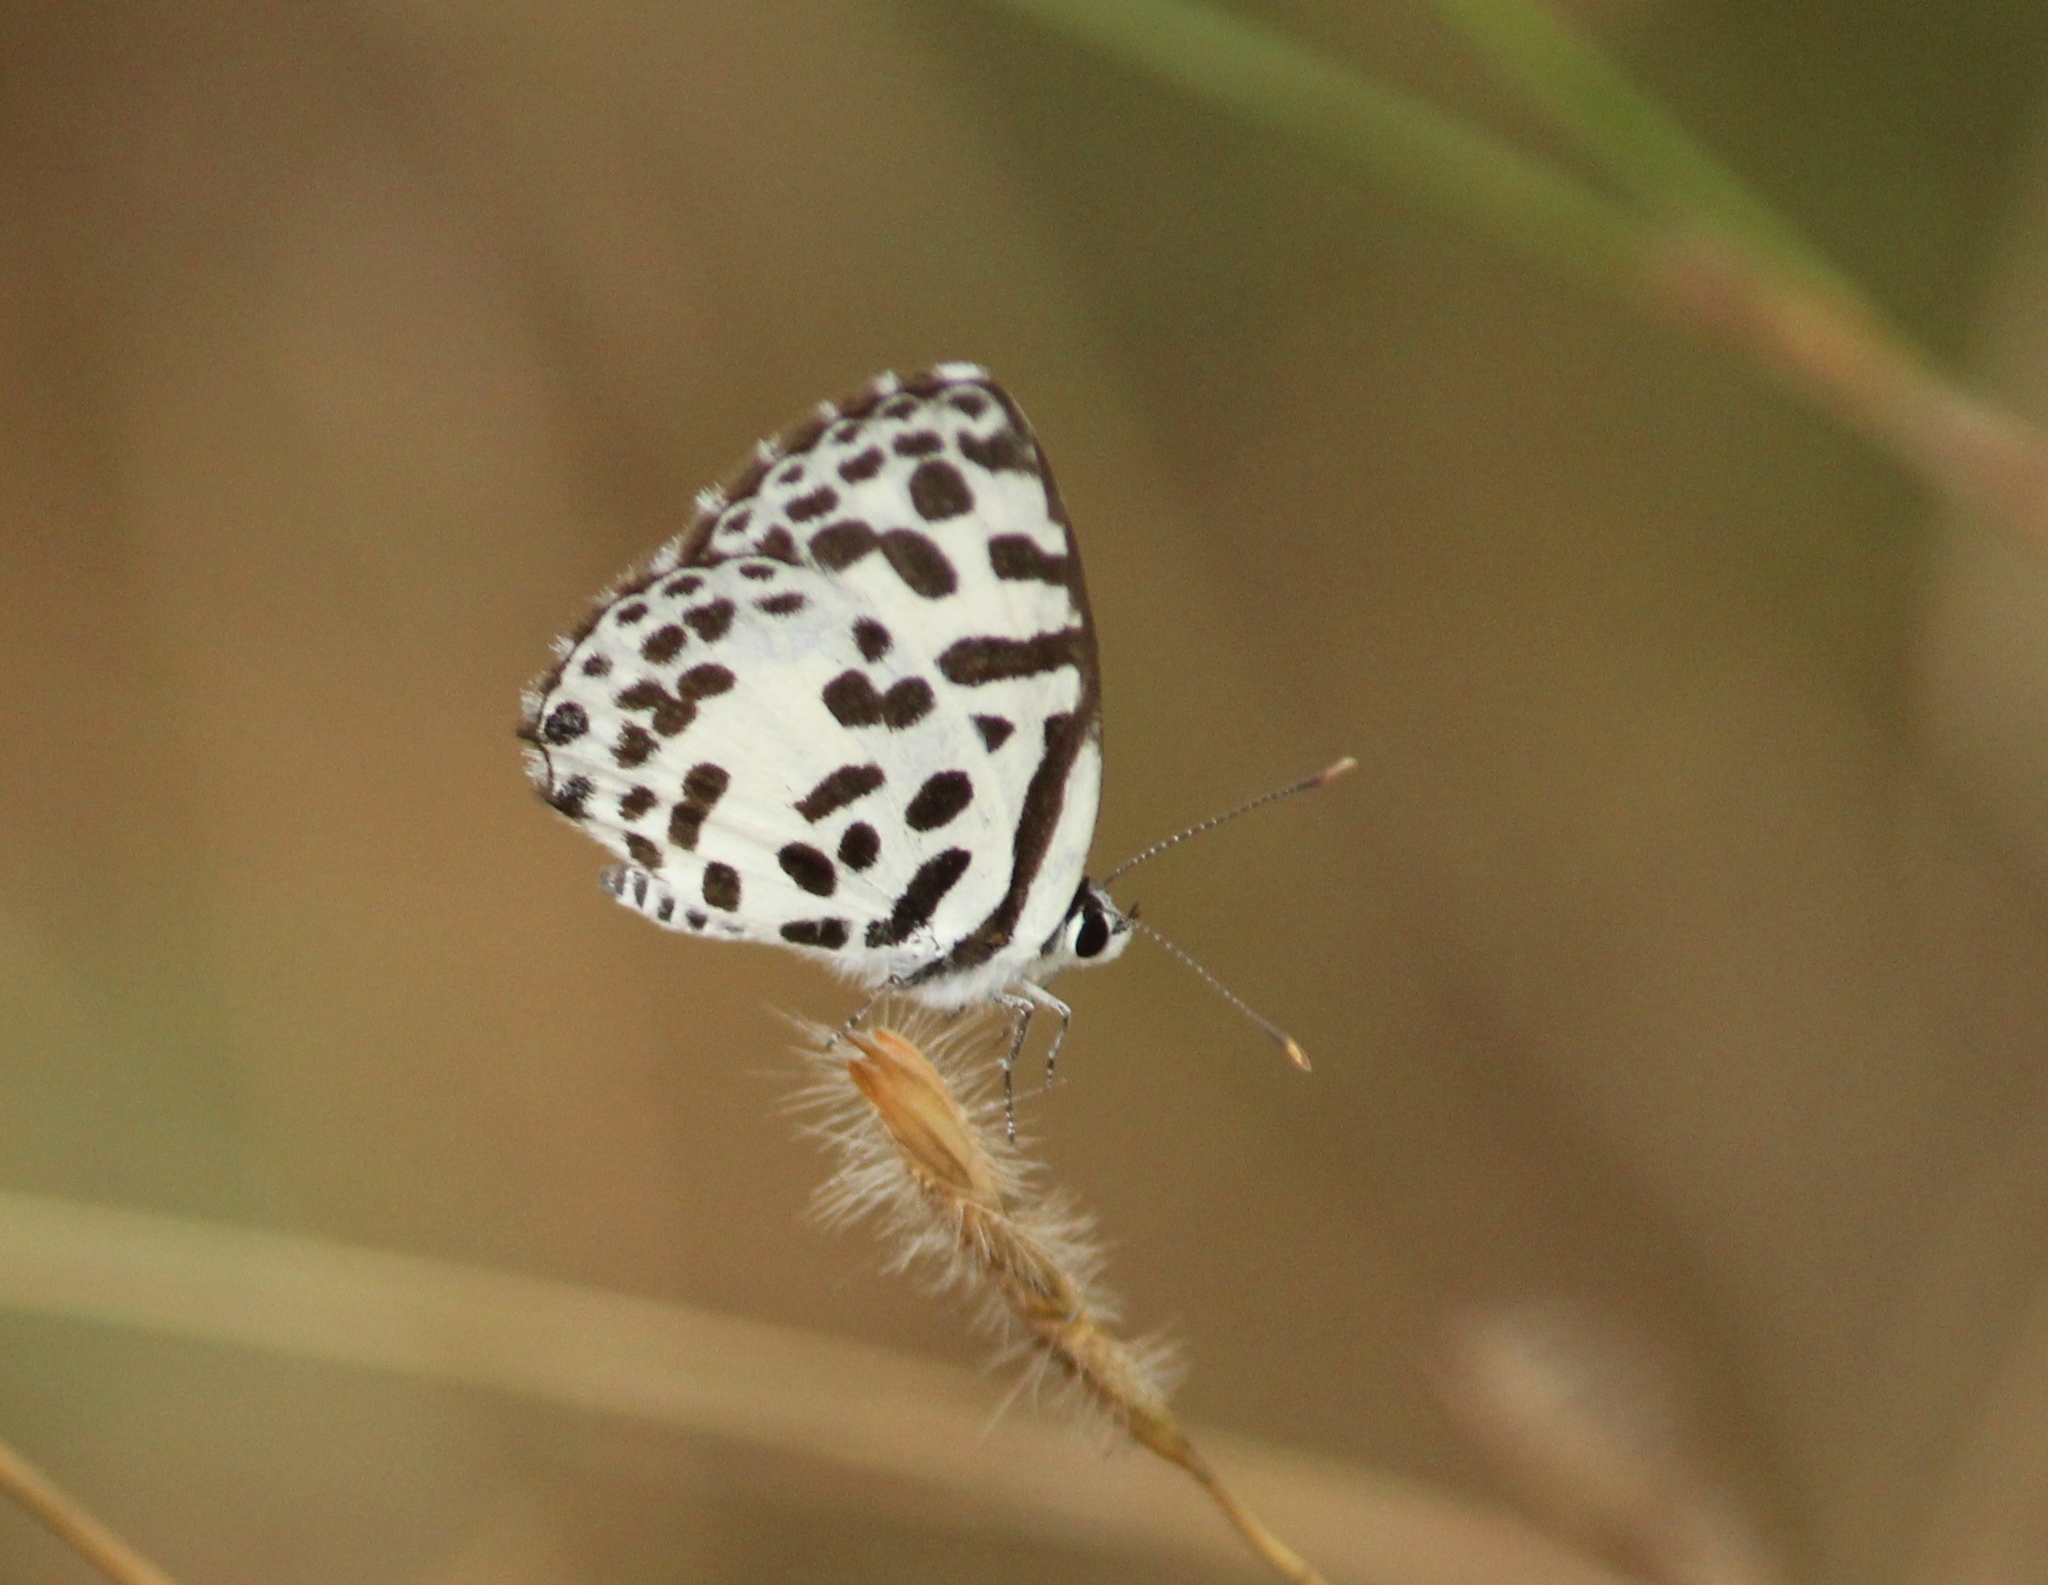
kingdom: Animalia
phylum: Arthropoda
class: Insecta
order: Lepidoptera
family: Lycaenidae
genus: Castalius
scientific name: Castalius rosimon
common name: Common pierrot
